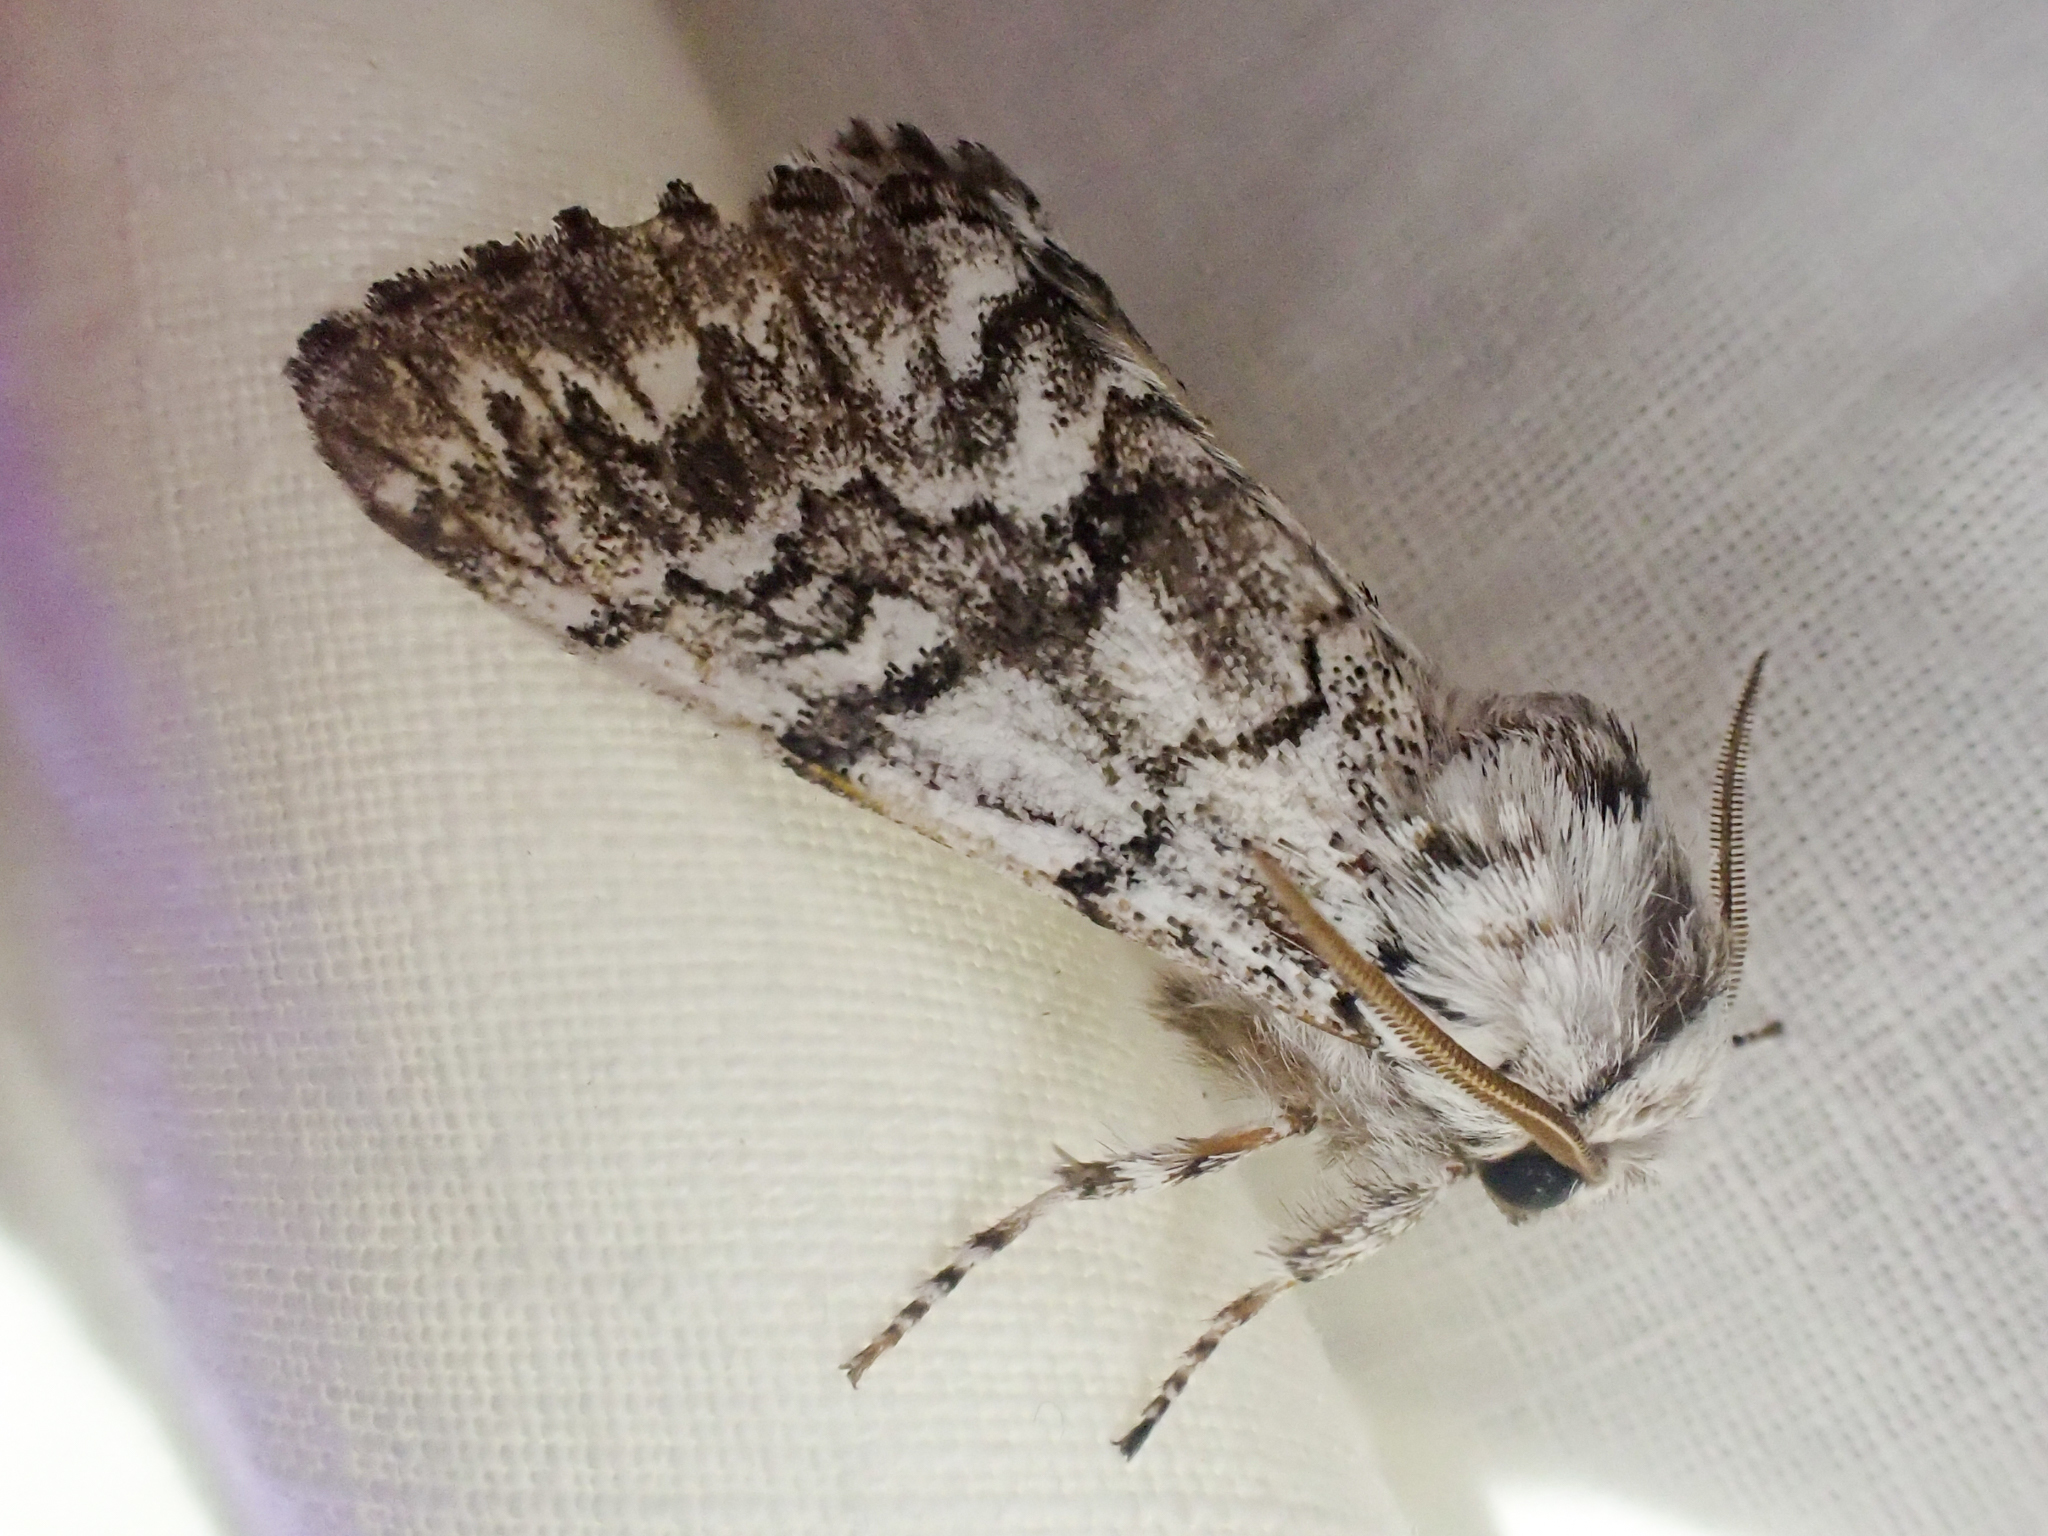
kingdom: Animalia
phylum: Arthropoda
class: Insecta
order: Lepidoptera
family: Noctuidae
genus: Panthea
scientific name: Panthea virginarius
